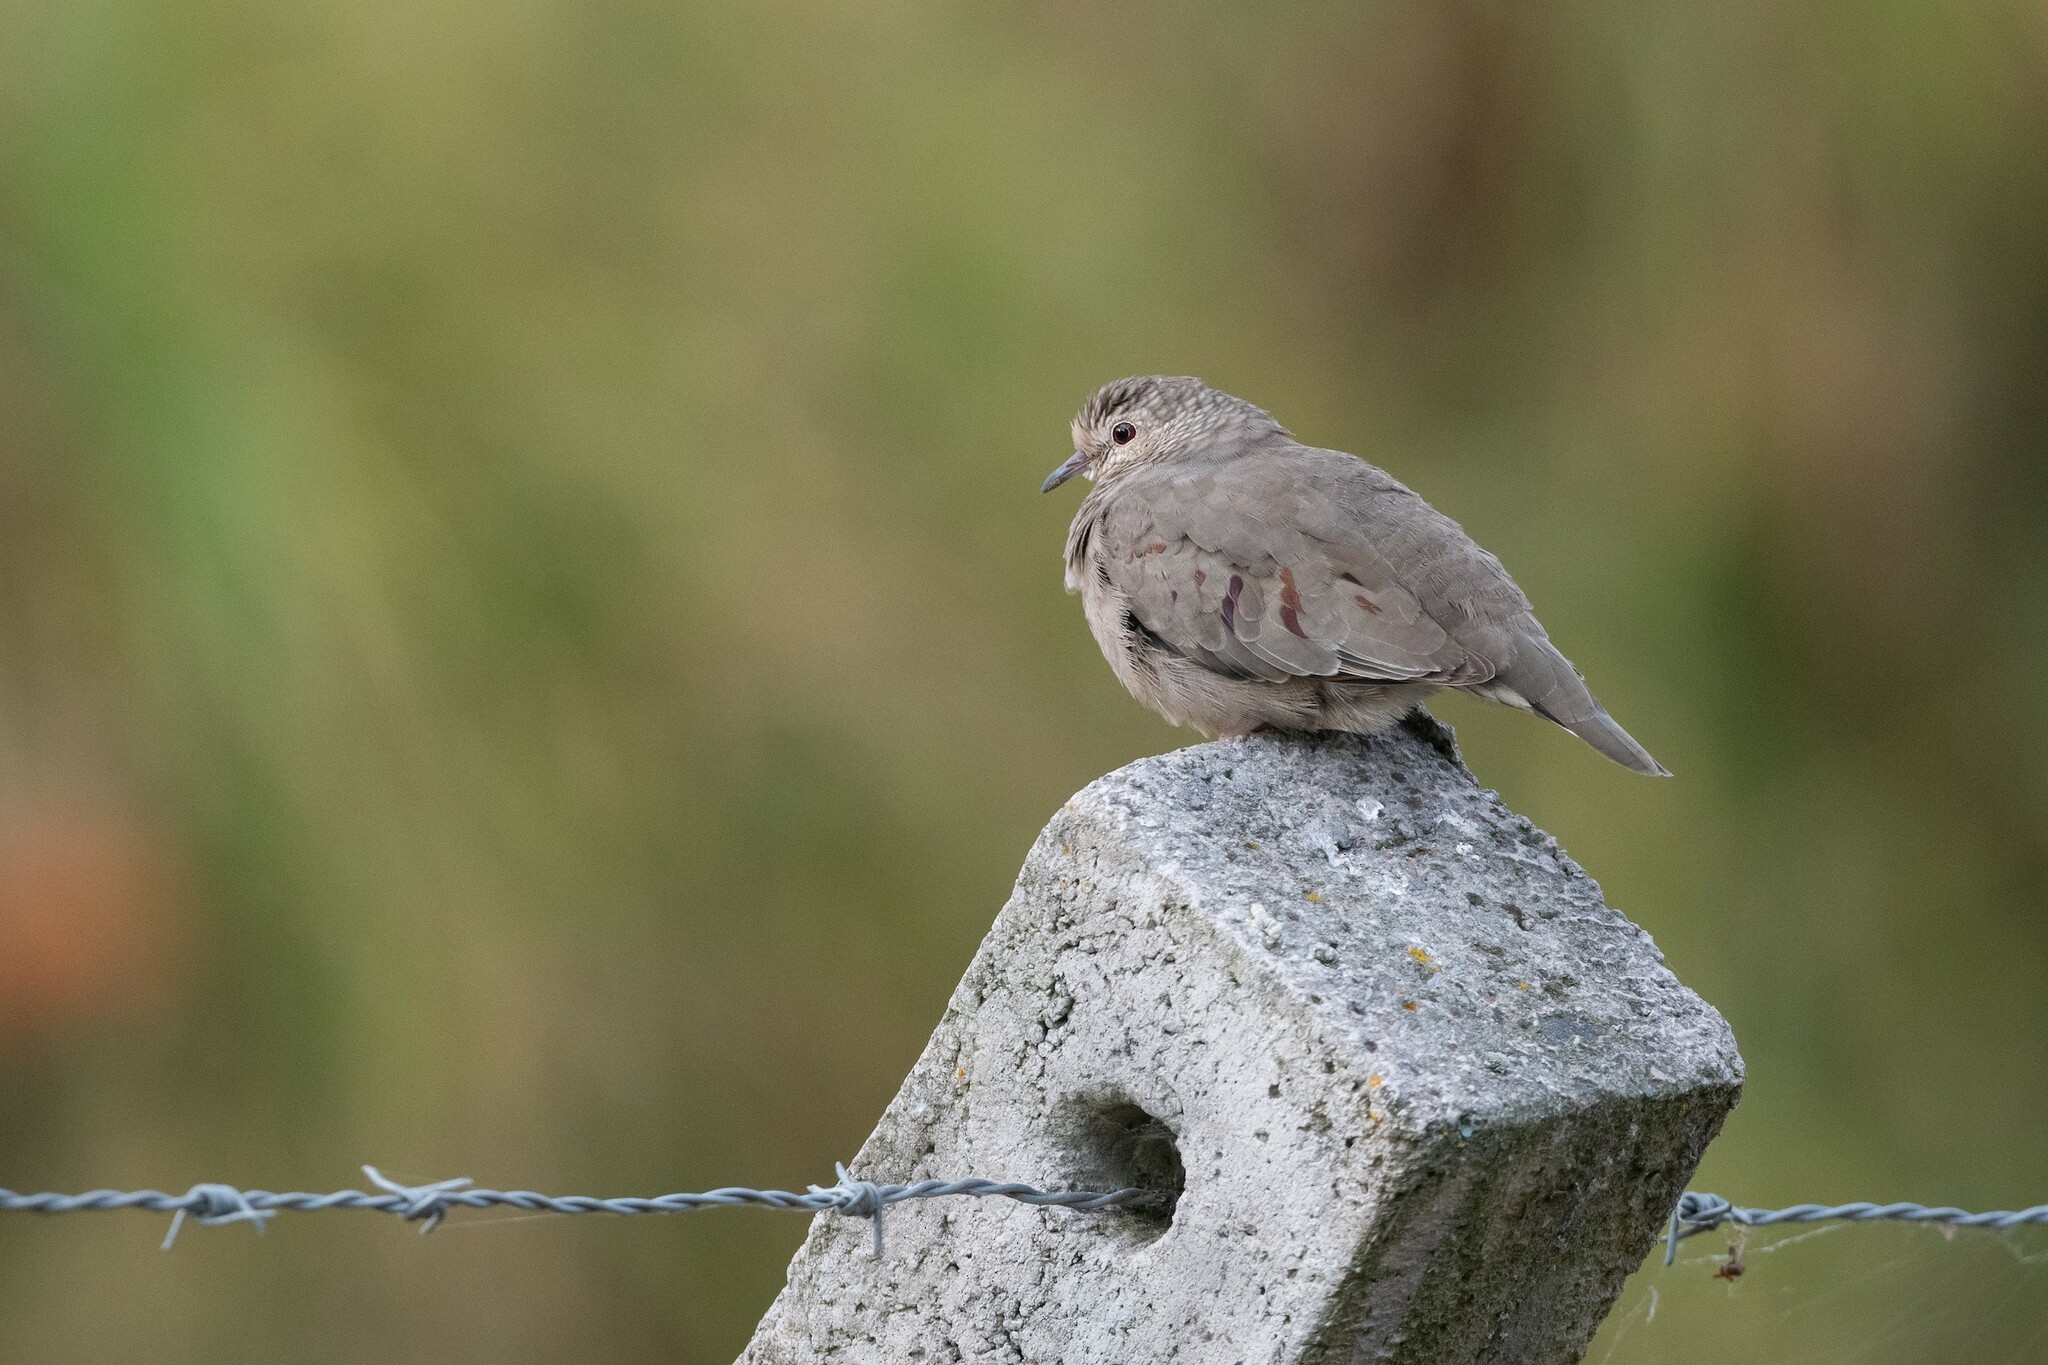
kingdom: Animalia
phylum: Chordata
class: Aves
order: Columbiformes
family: Columbidae
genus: Columbina
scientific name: Columbina passerina
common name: Common ground-dove
